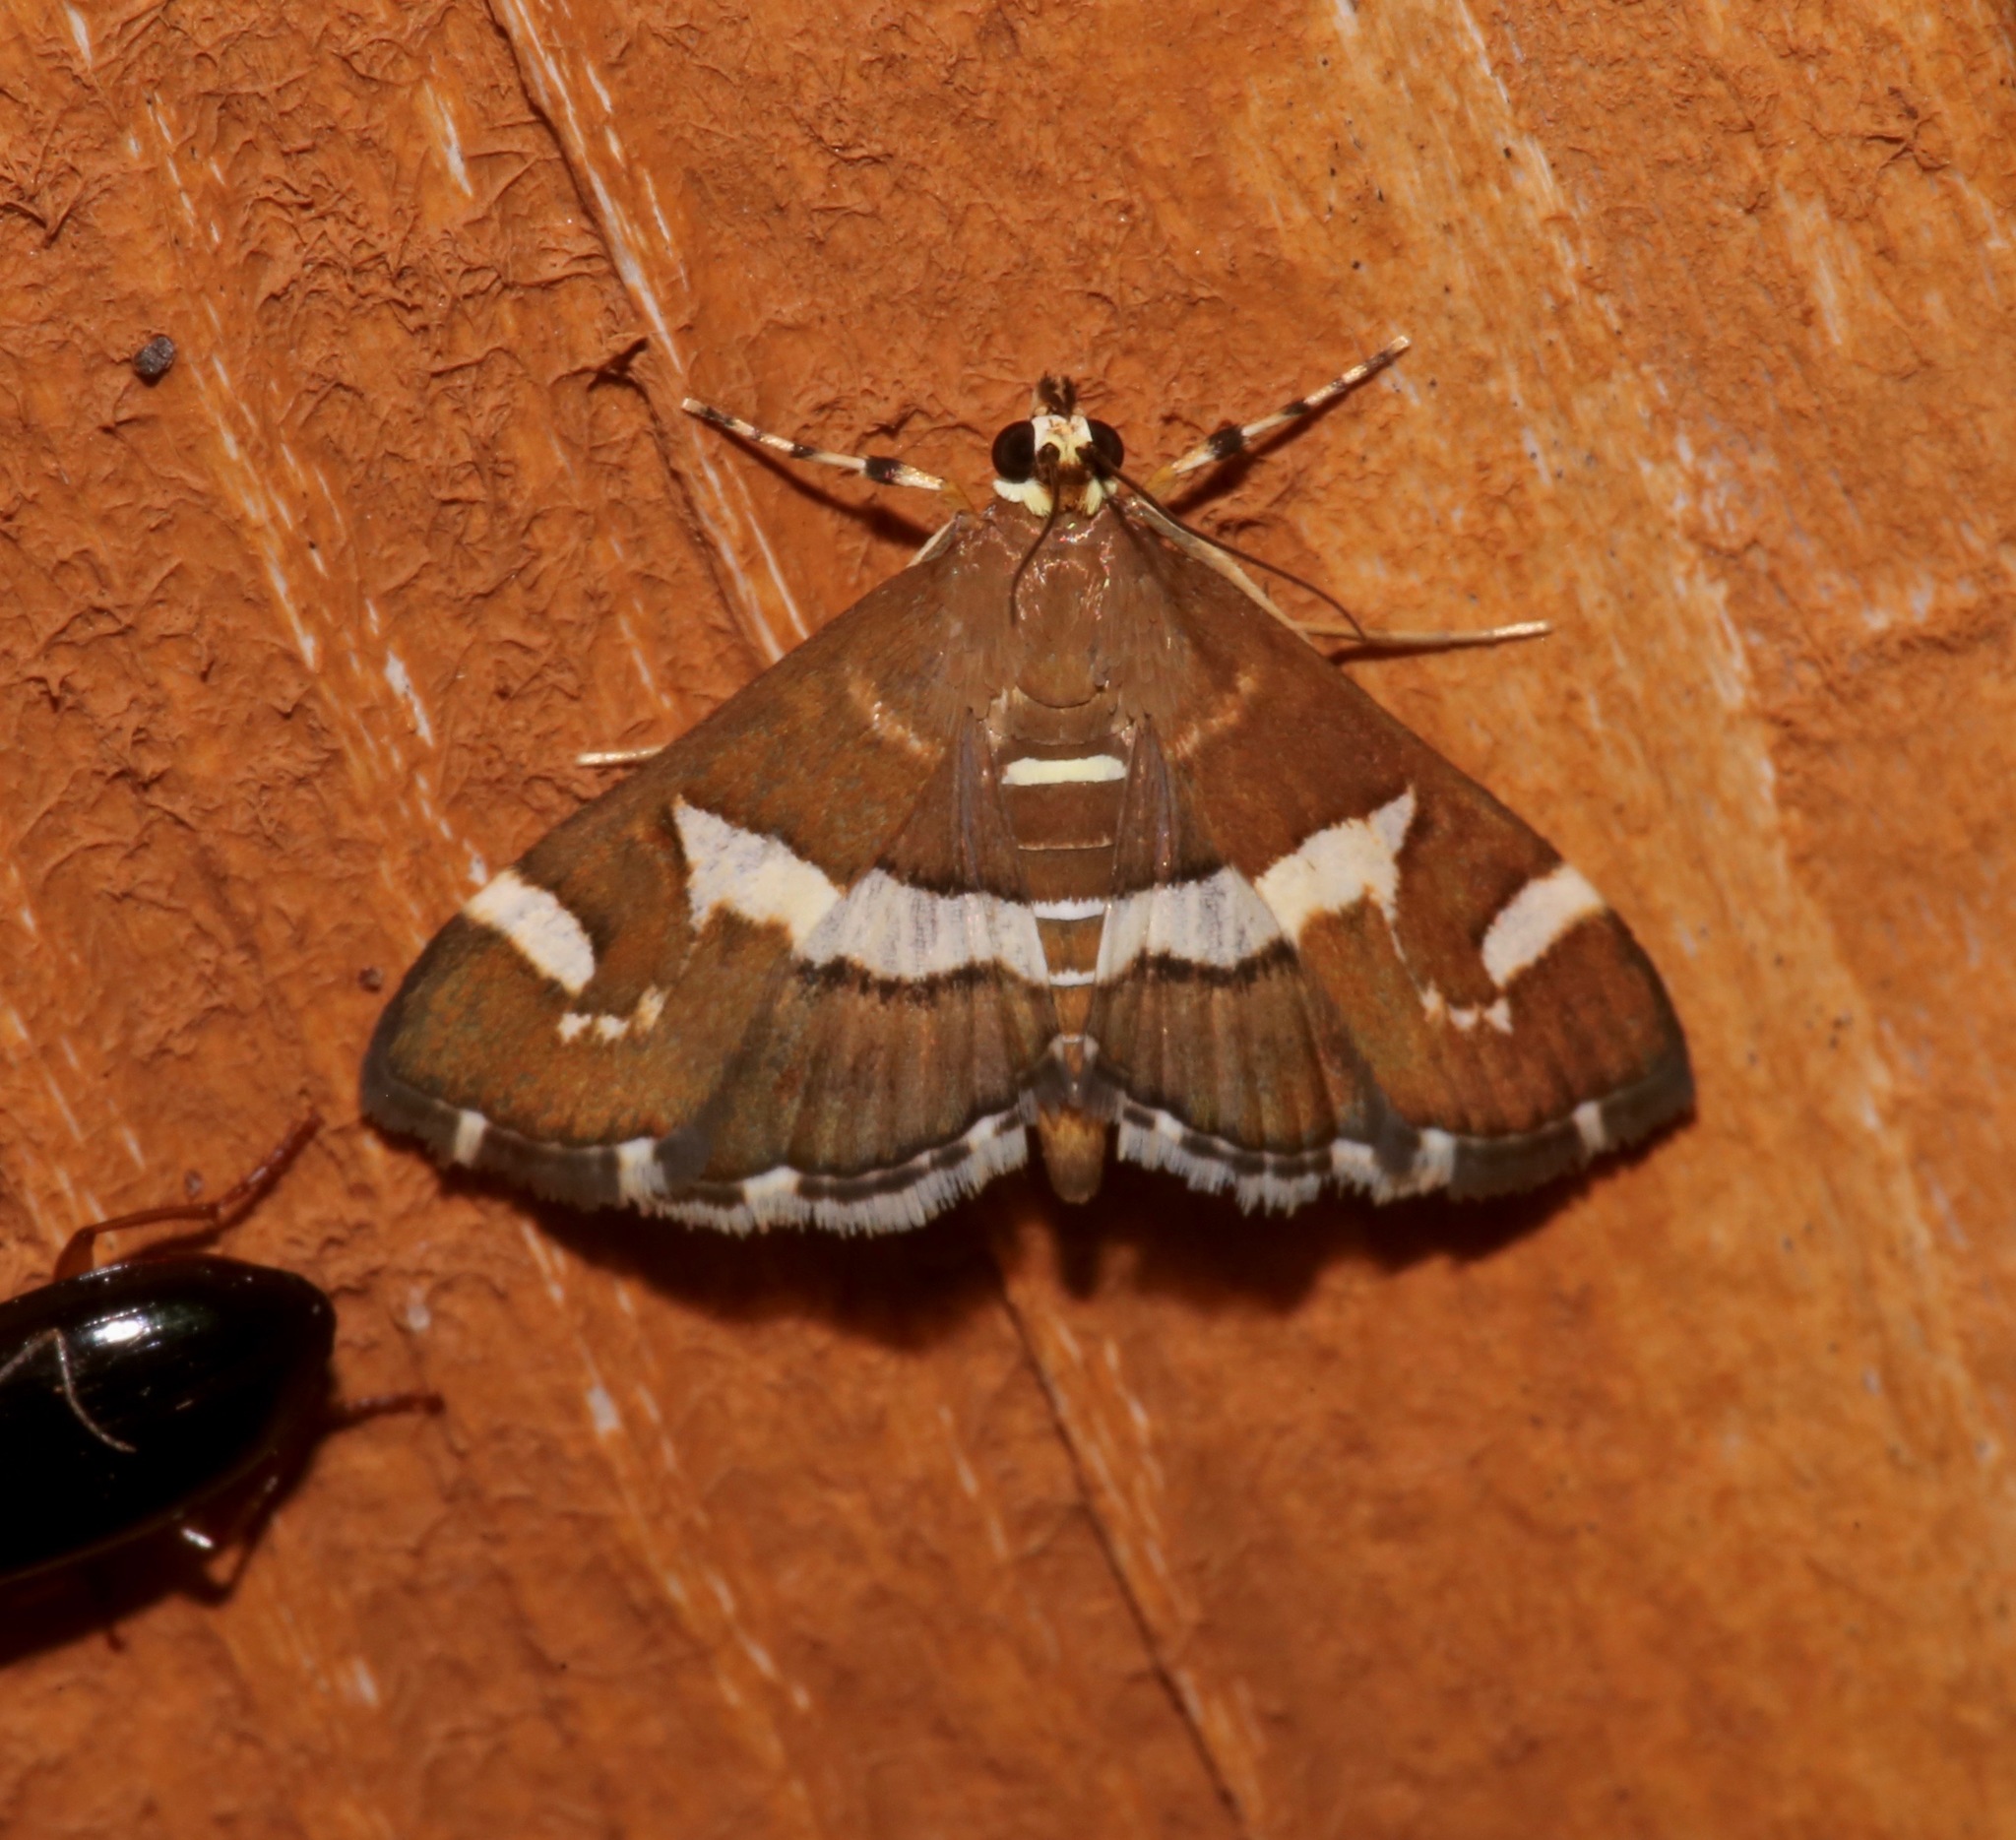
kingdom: Animalia
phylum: Arthropoda
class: Insecta
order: Lepidoptera
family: Crambidae
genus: Spoladea
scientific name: Spoladea recurvalis
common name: Beet webworm moth
